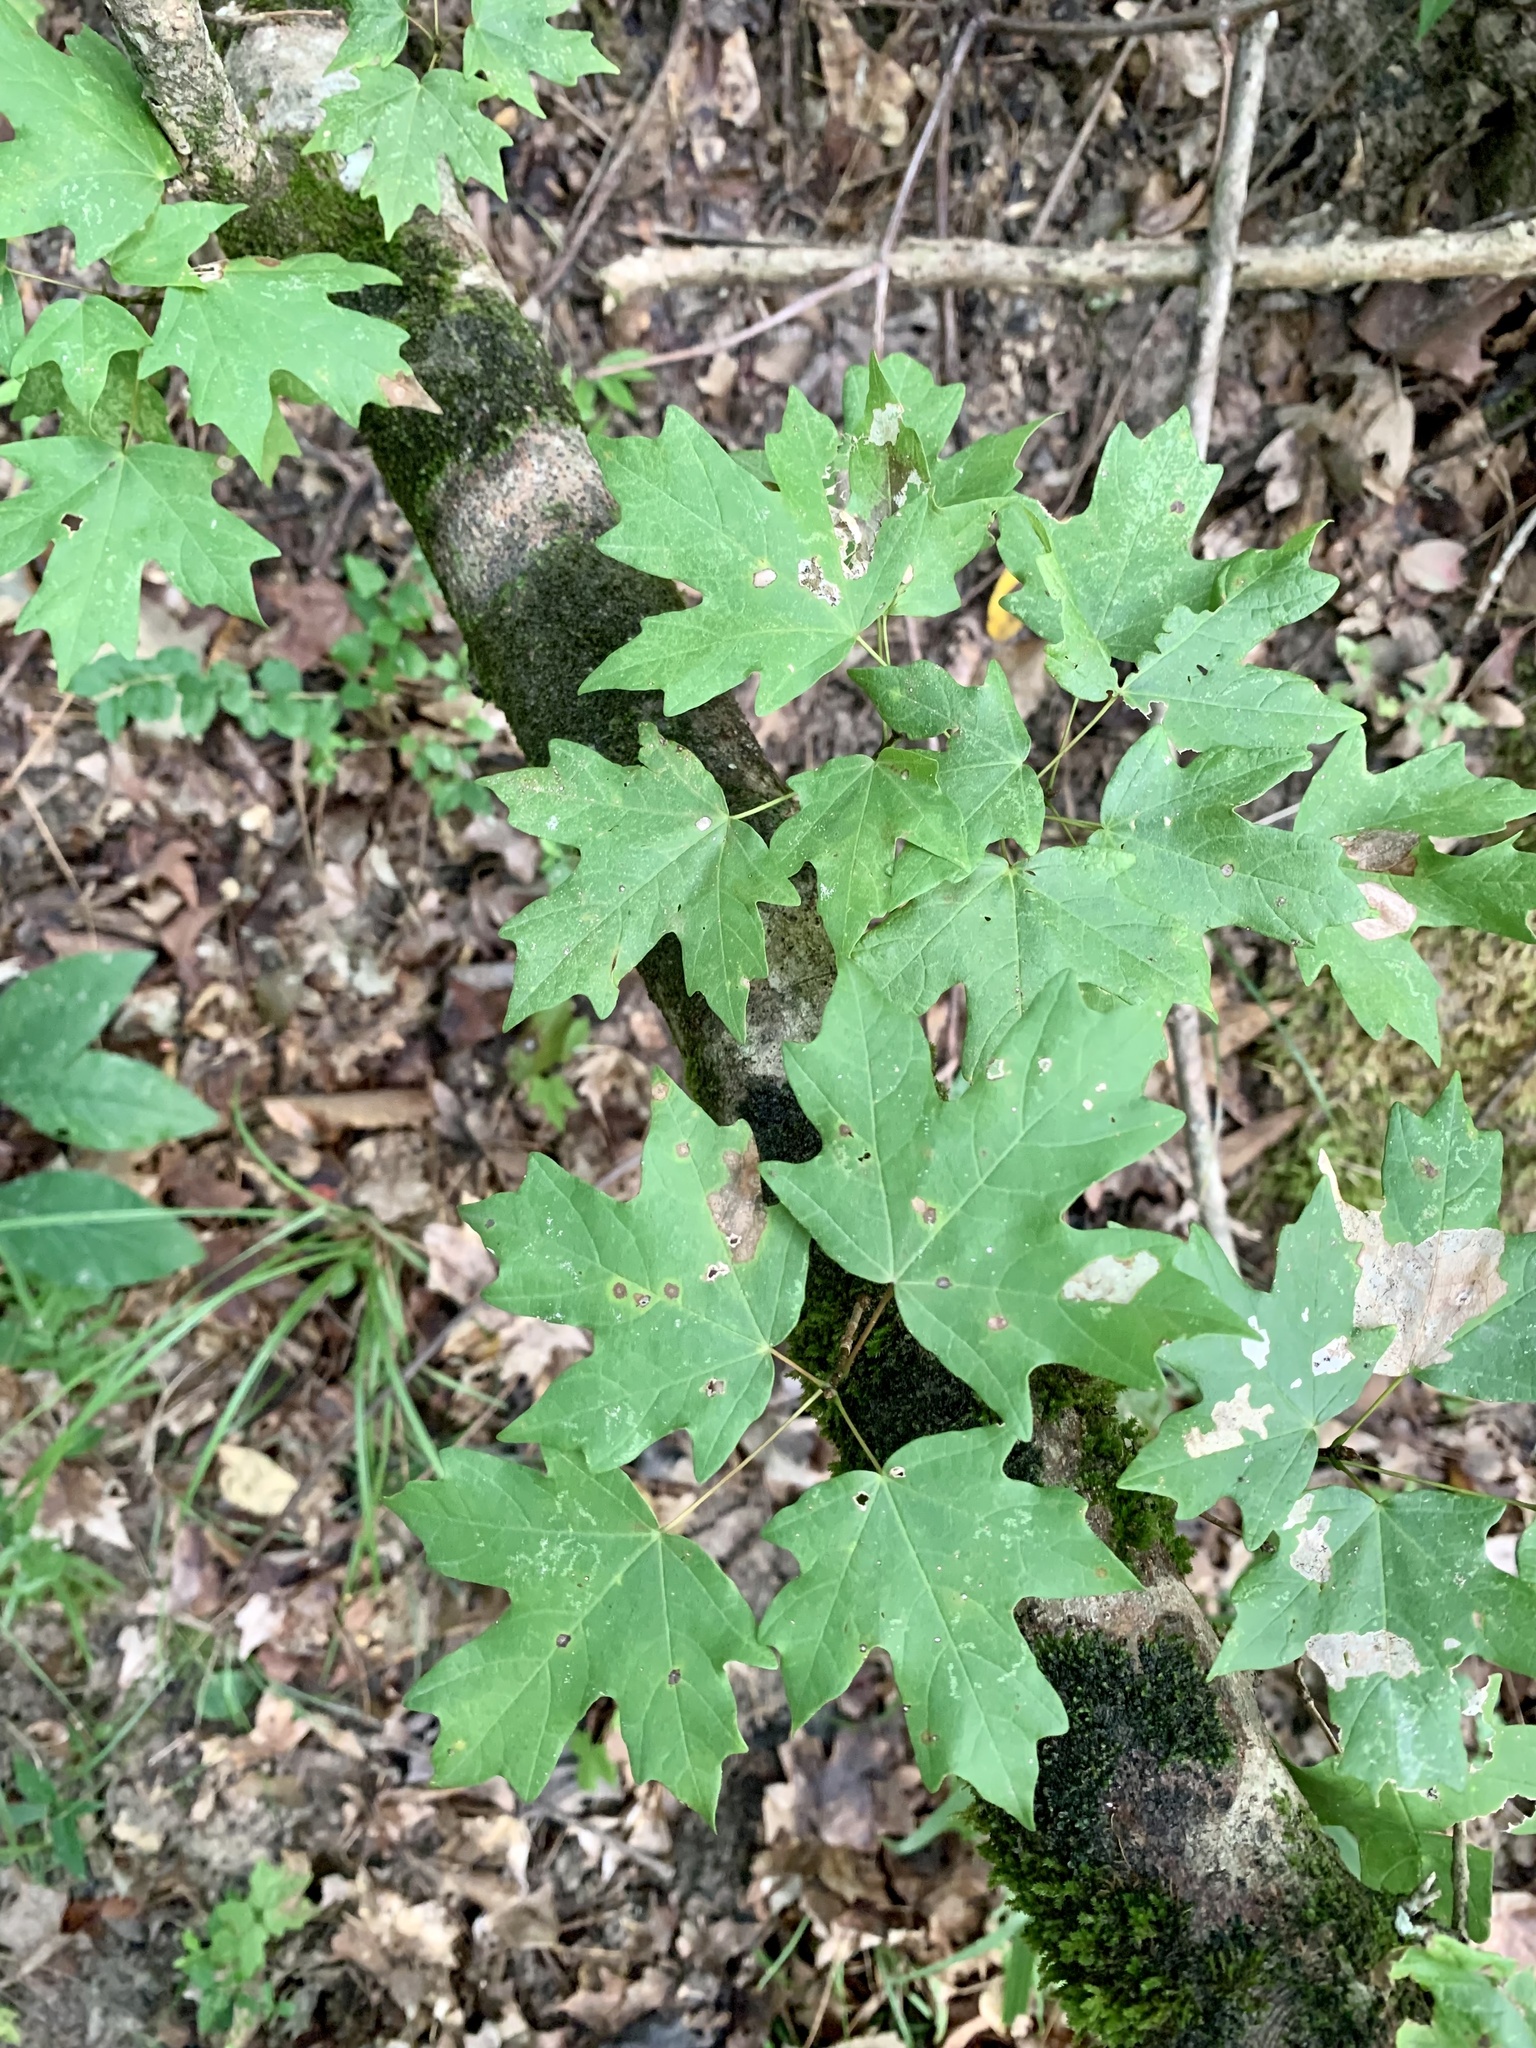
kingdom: Plantae
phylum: Tracheophyta
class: Magnoliopsida
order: Sapindales
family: Sapindaceae
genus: Acer
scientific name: Acer floridanum
